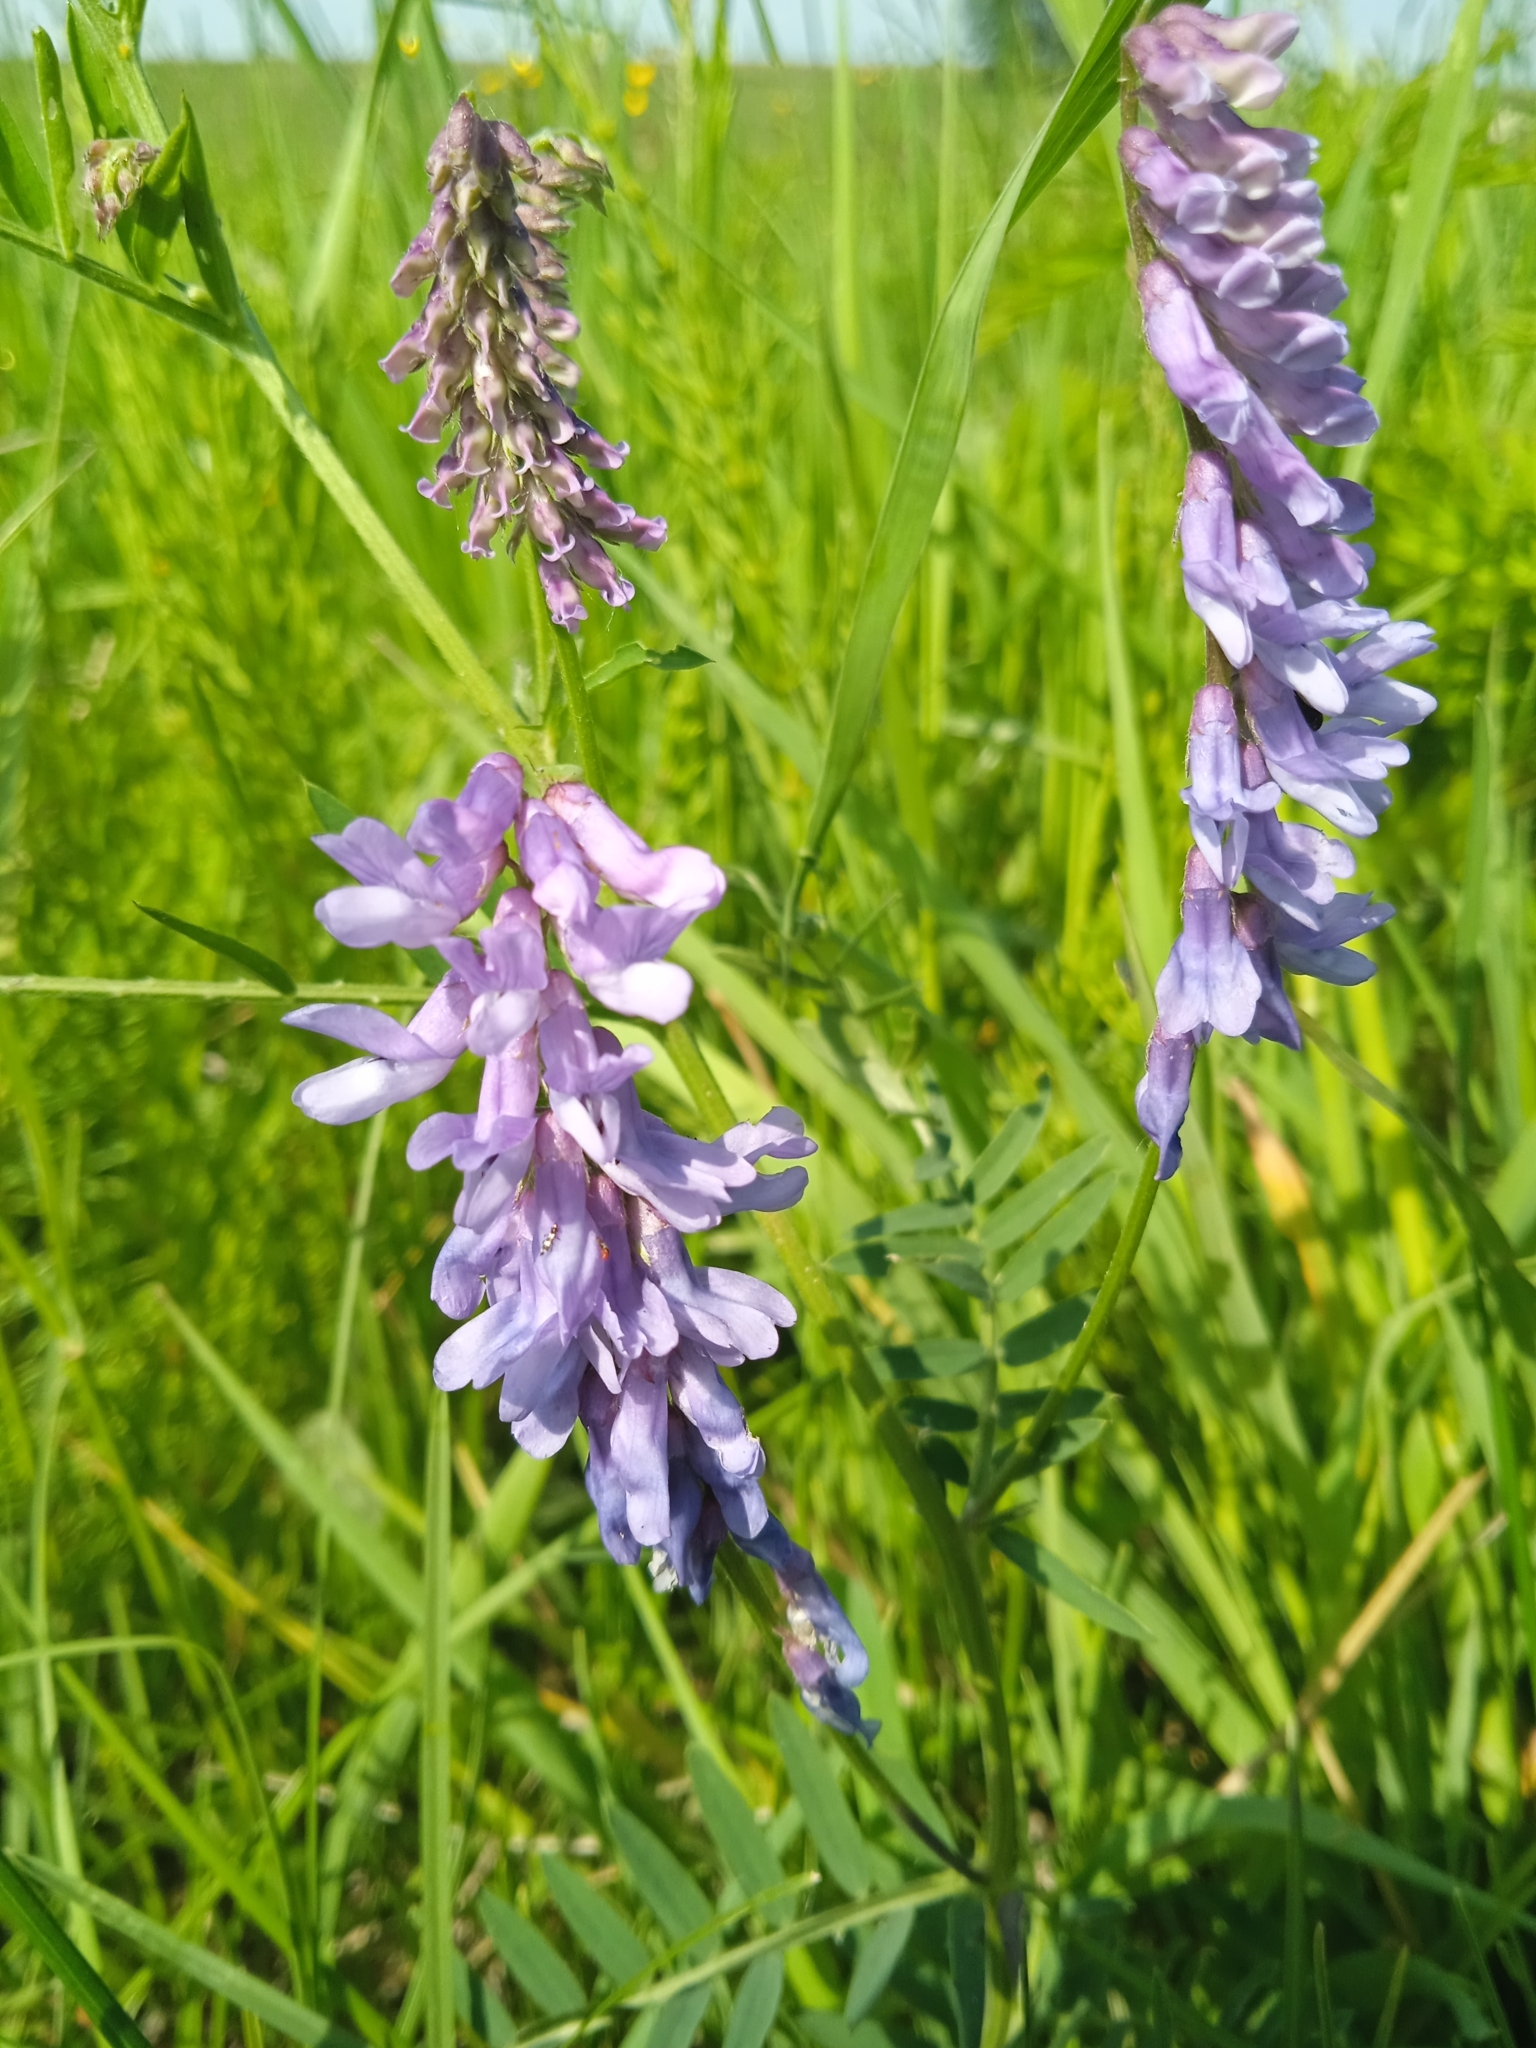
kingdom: Plantae
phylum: Tracheophyta
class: Magnoliopsida
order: Fabales
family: Fabaceae
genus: Vicia
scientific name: Vicia cracca
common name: Bird vetch
